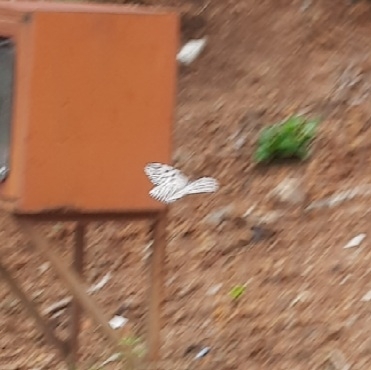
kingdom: Animalia
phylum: Arthropoda
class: Insecta
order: Lepidoptera
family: Nymphalidae
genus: Idea
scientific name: Idea malabarica
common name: Malabar tree-nymph
